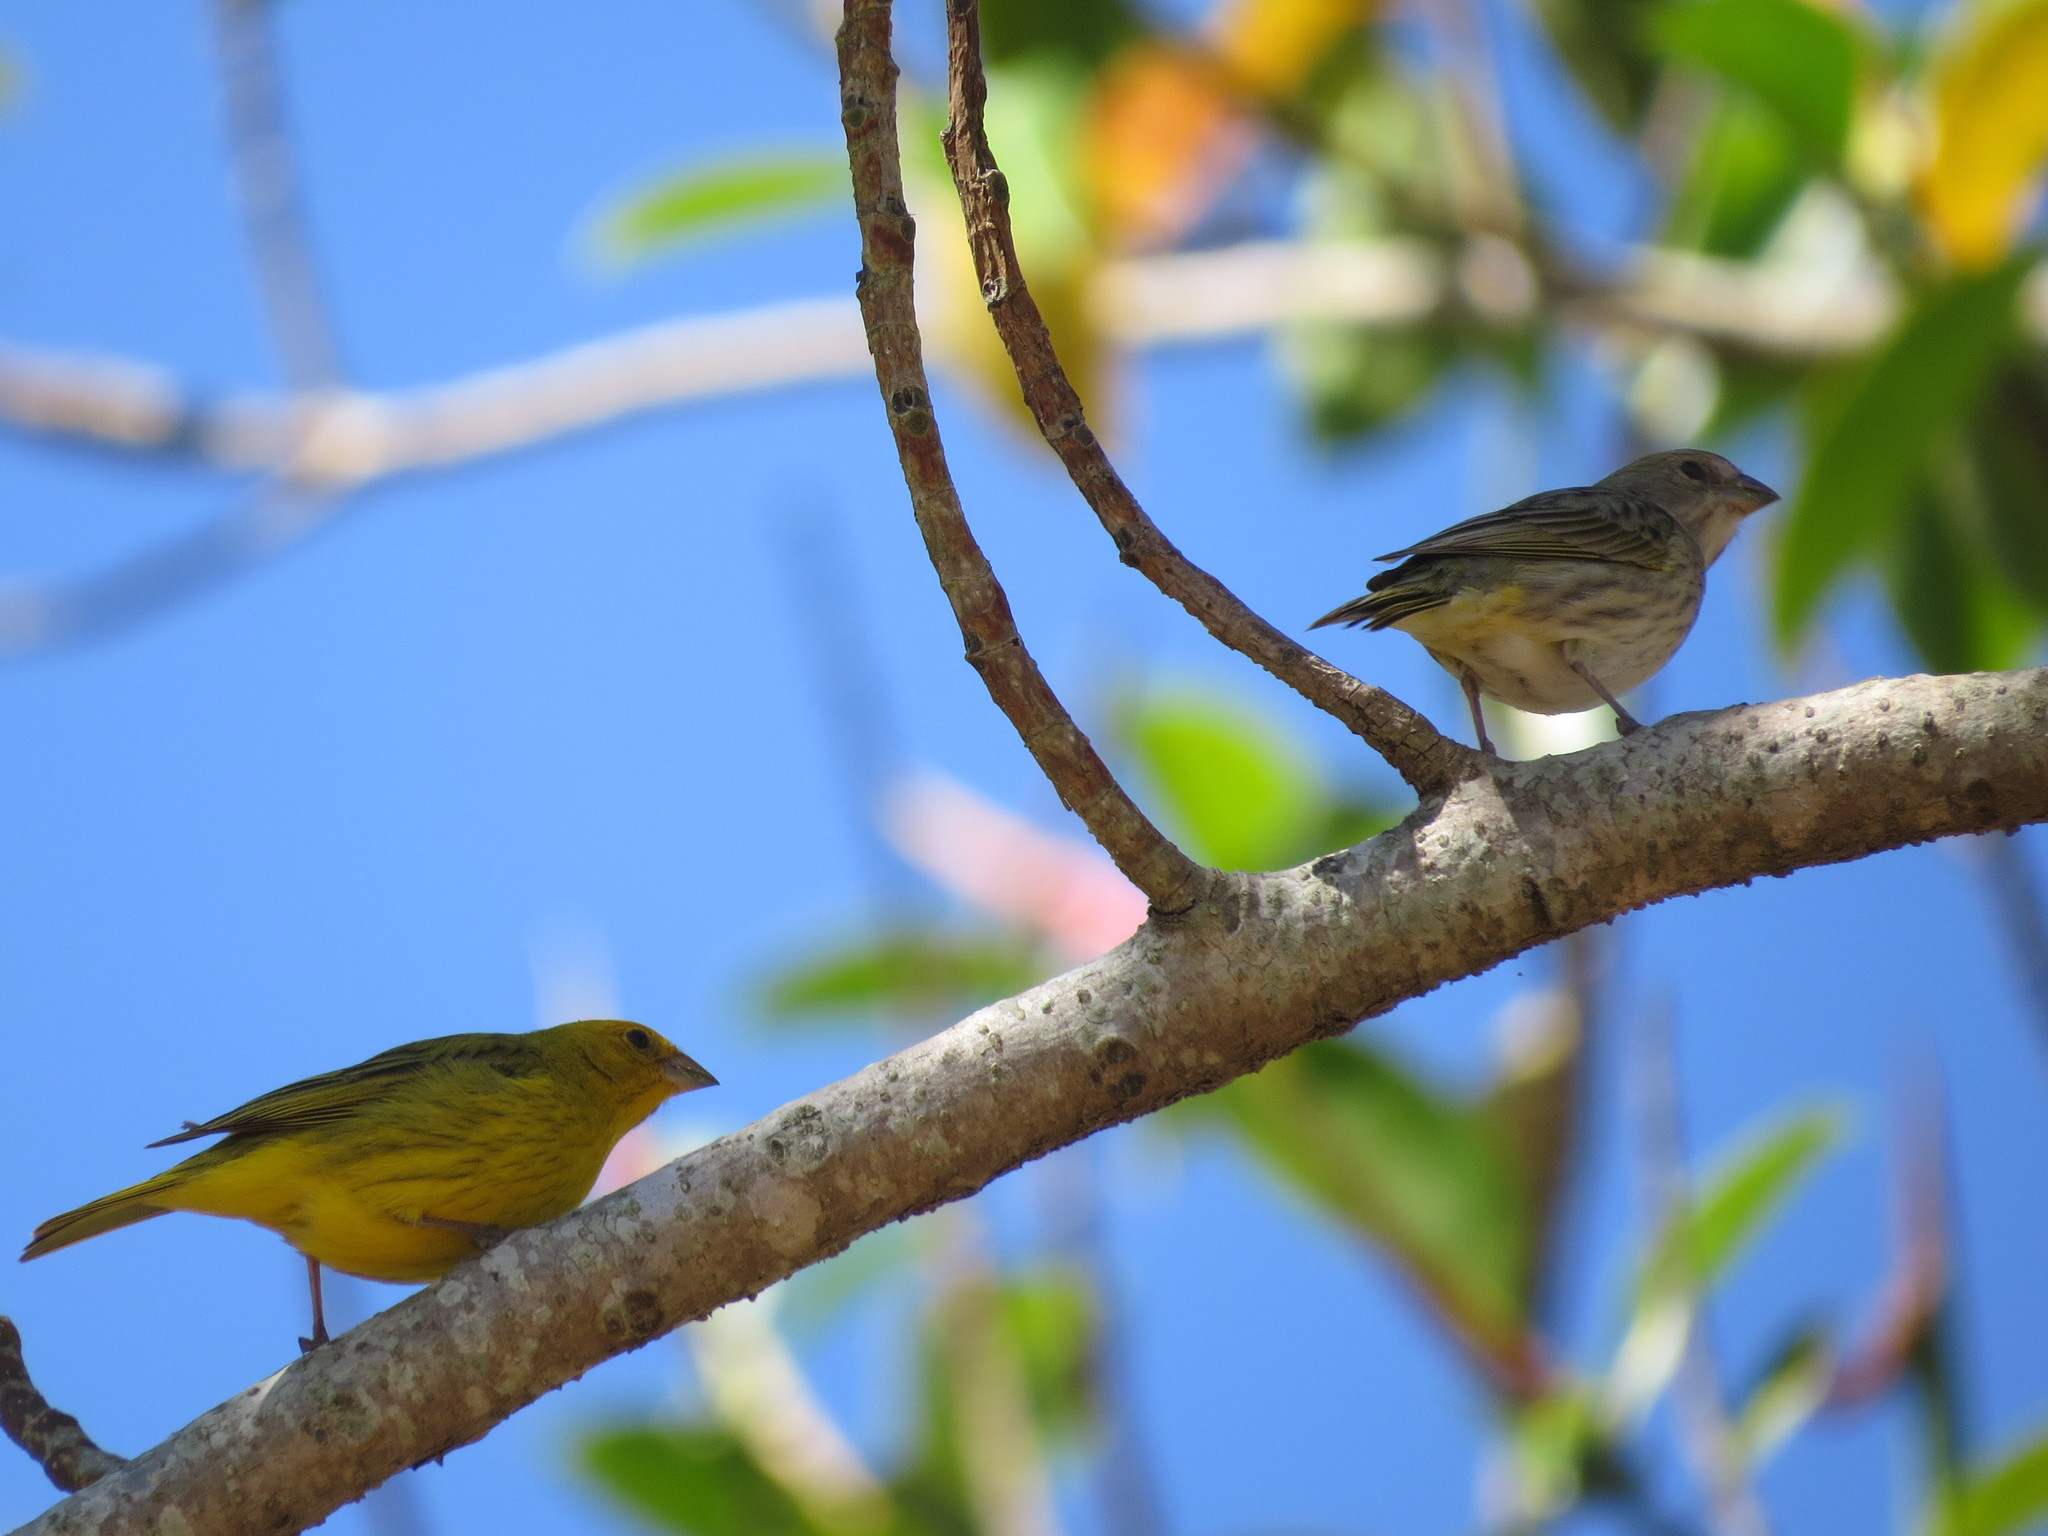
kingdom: Animalia
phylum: Chordata
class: Aves
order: Passeriformes
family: Thraupidae
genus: Sicalis
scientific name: Sicalis flaveola
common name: Saffron finch
